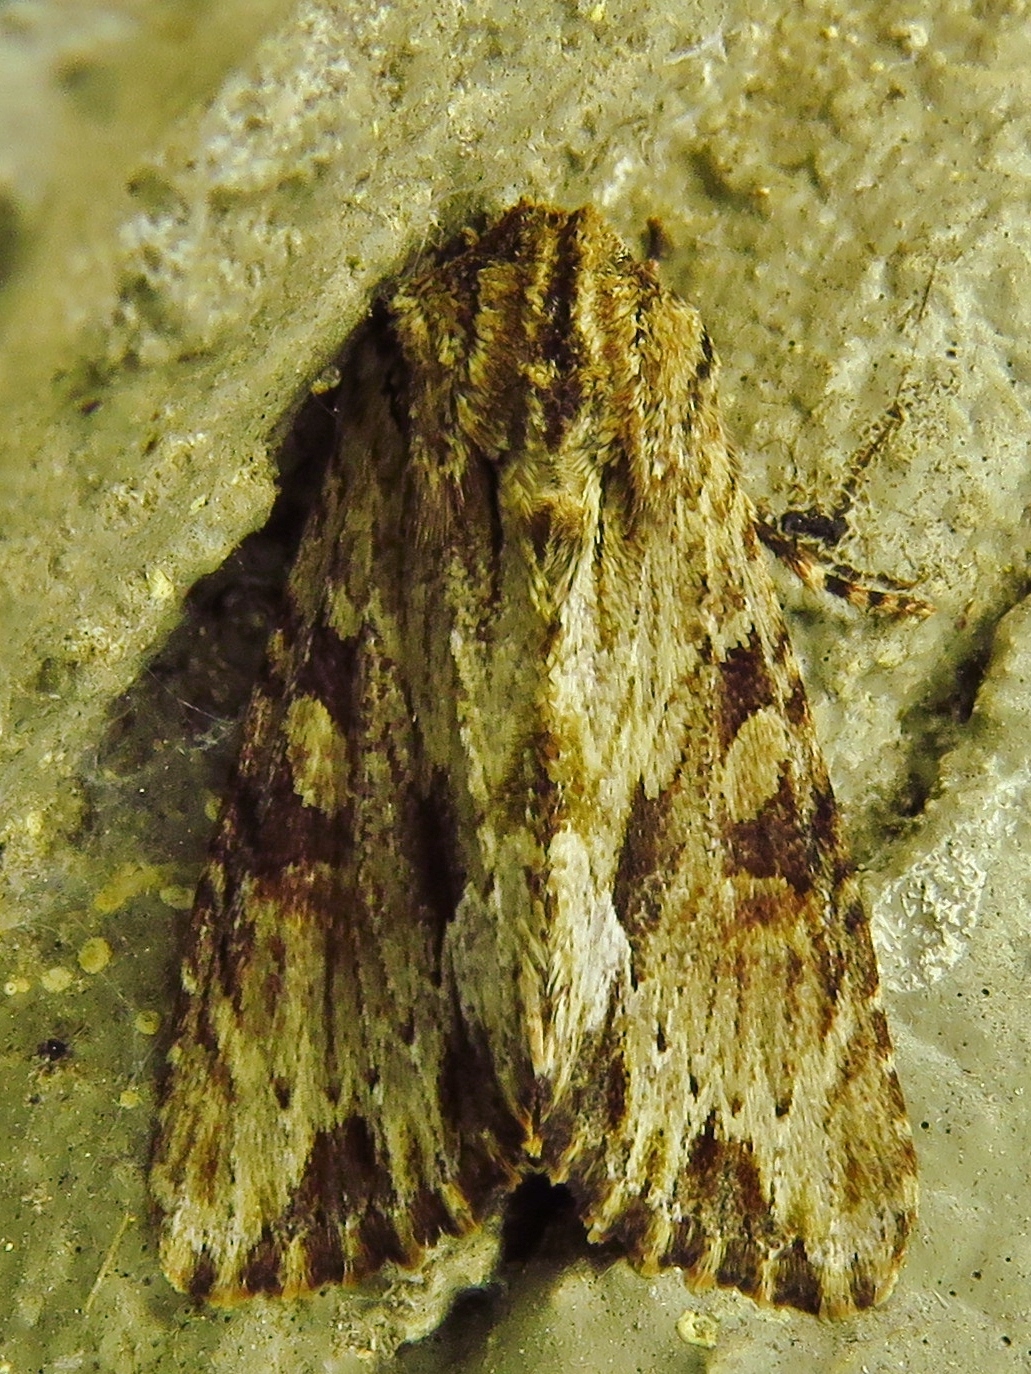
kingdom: Animalia
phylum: Arthropoda
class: Insecta
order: Lepidoptera
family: Noctuidae
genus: Achatia
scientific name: Achatia mucens
